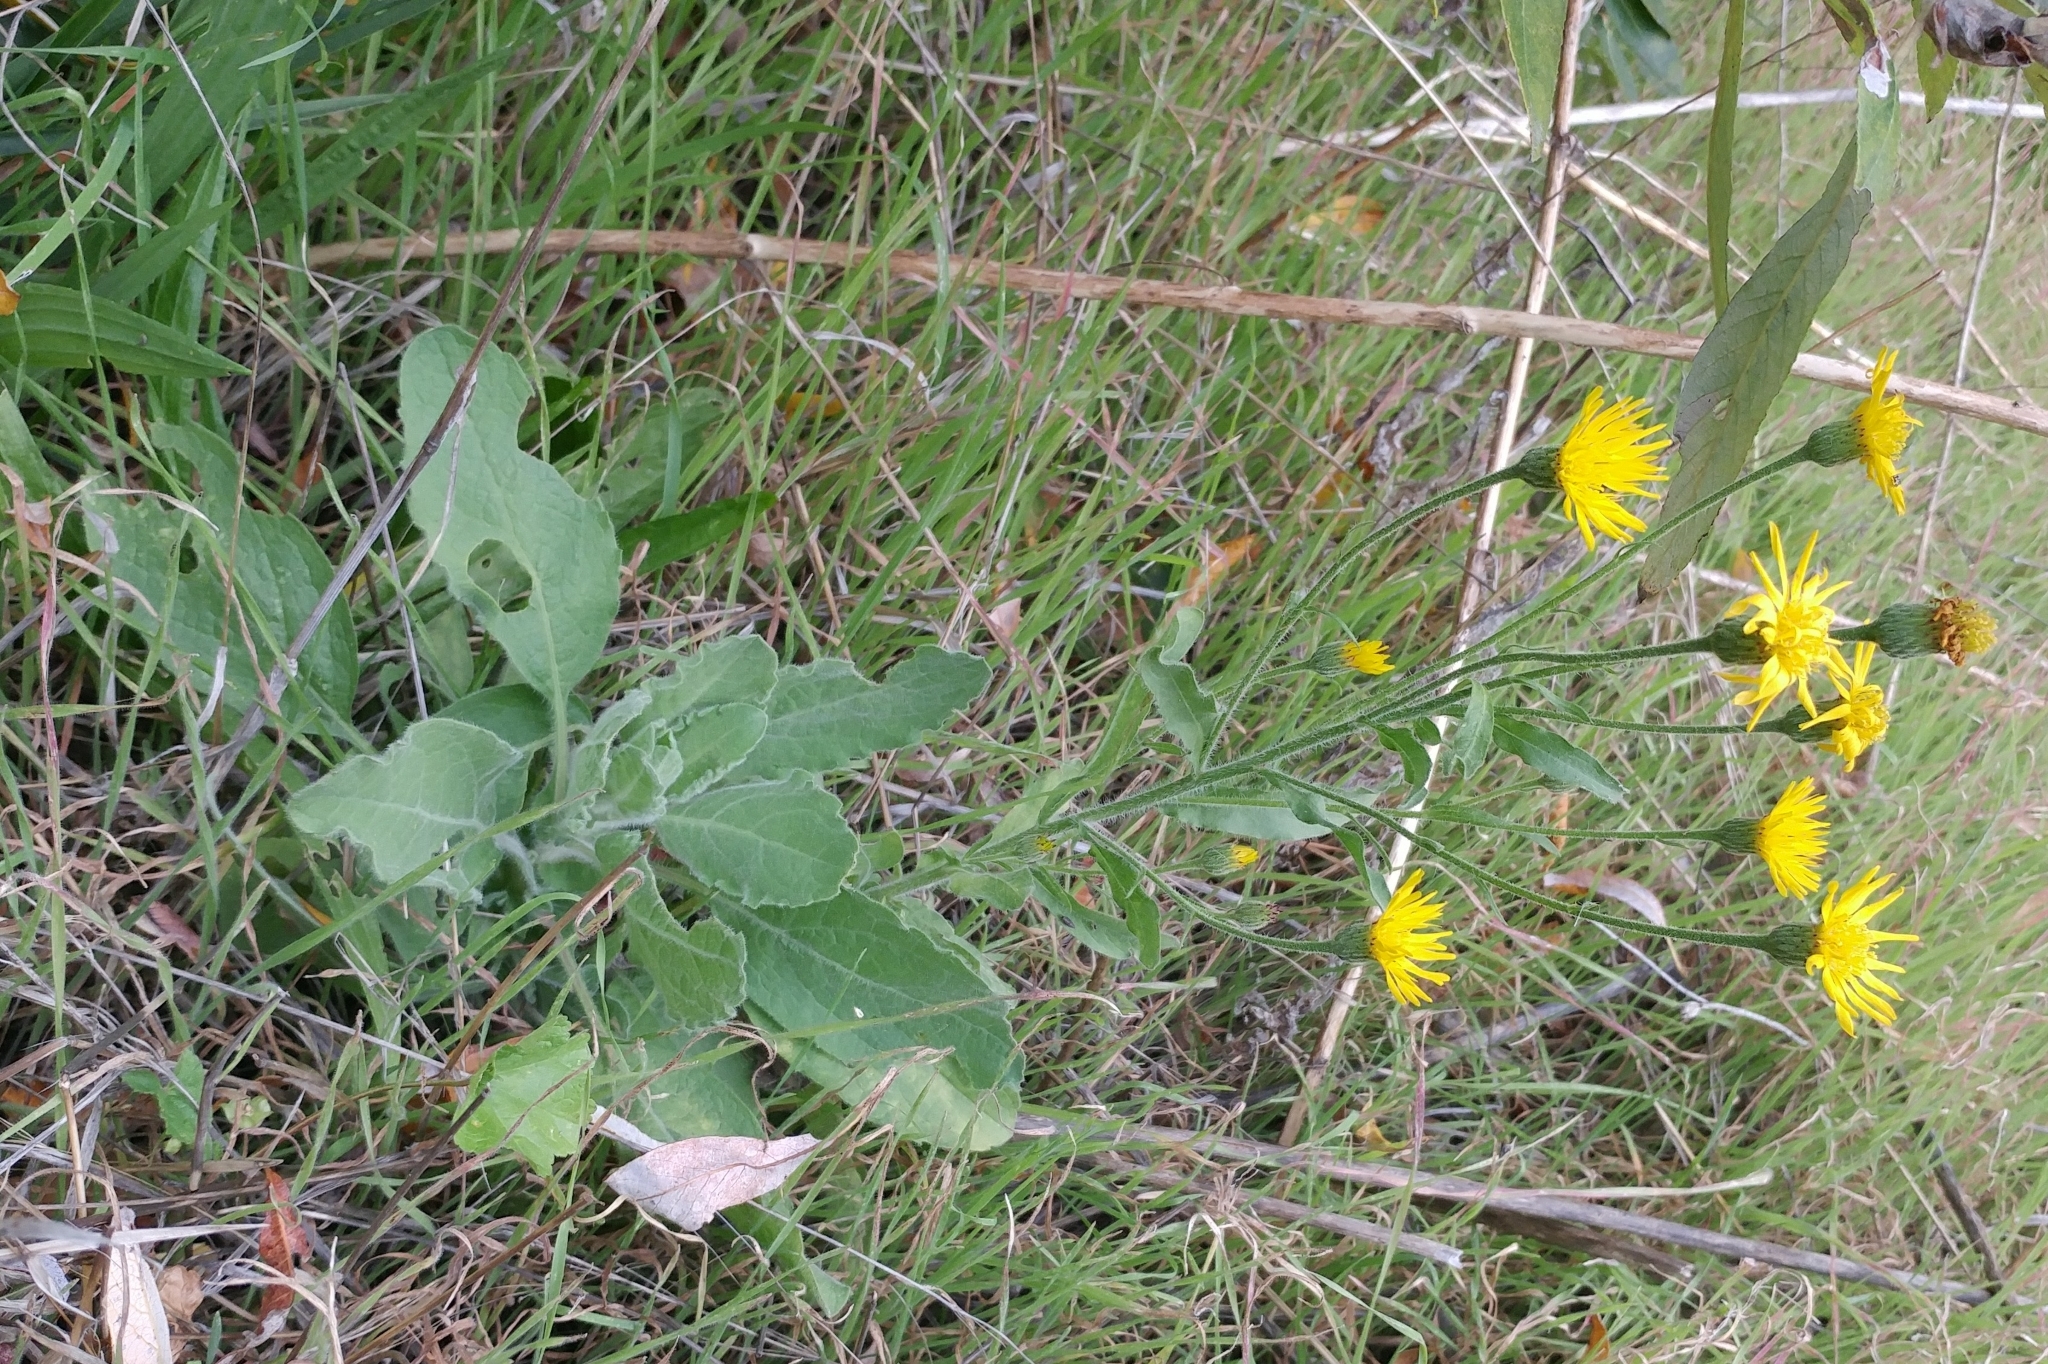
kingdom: Plantae
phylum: Tracheophyta
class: Magnoliopsida
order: Asterales
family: Asteraceae
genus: Heterotheca
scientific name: Heterotheca grandiflora
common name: Telegraphweed
